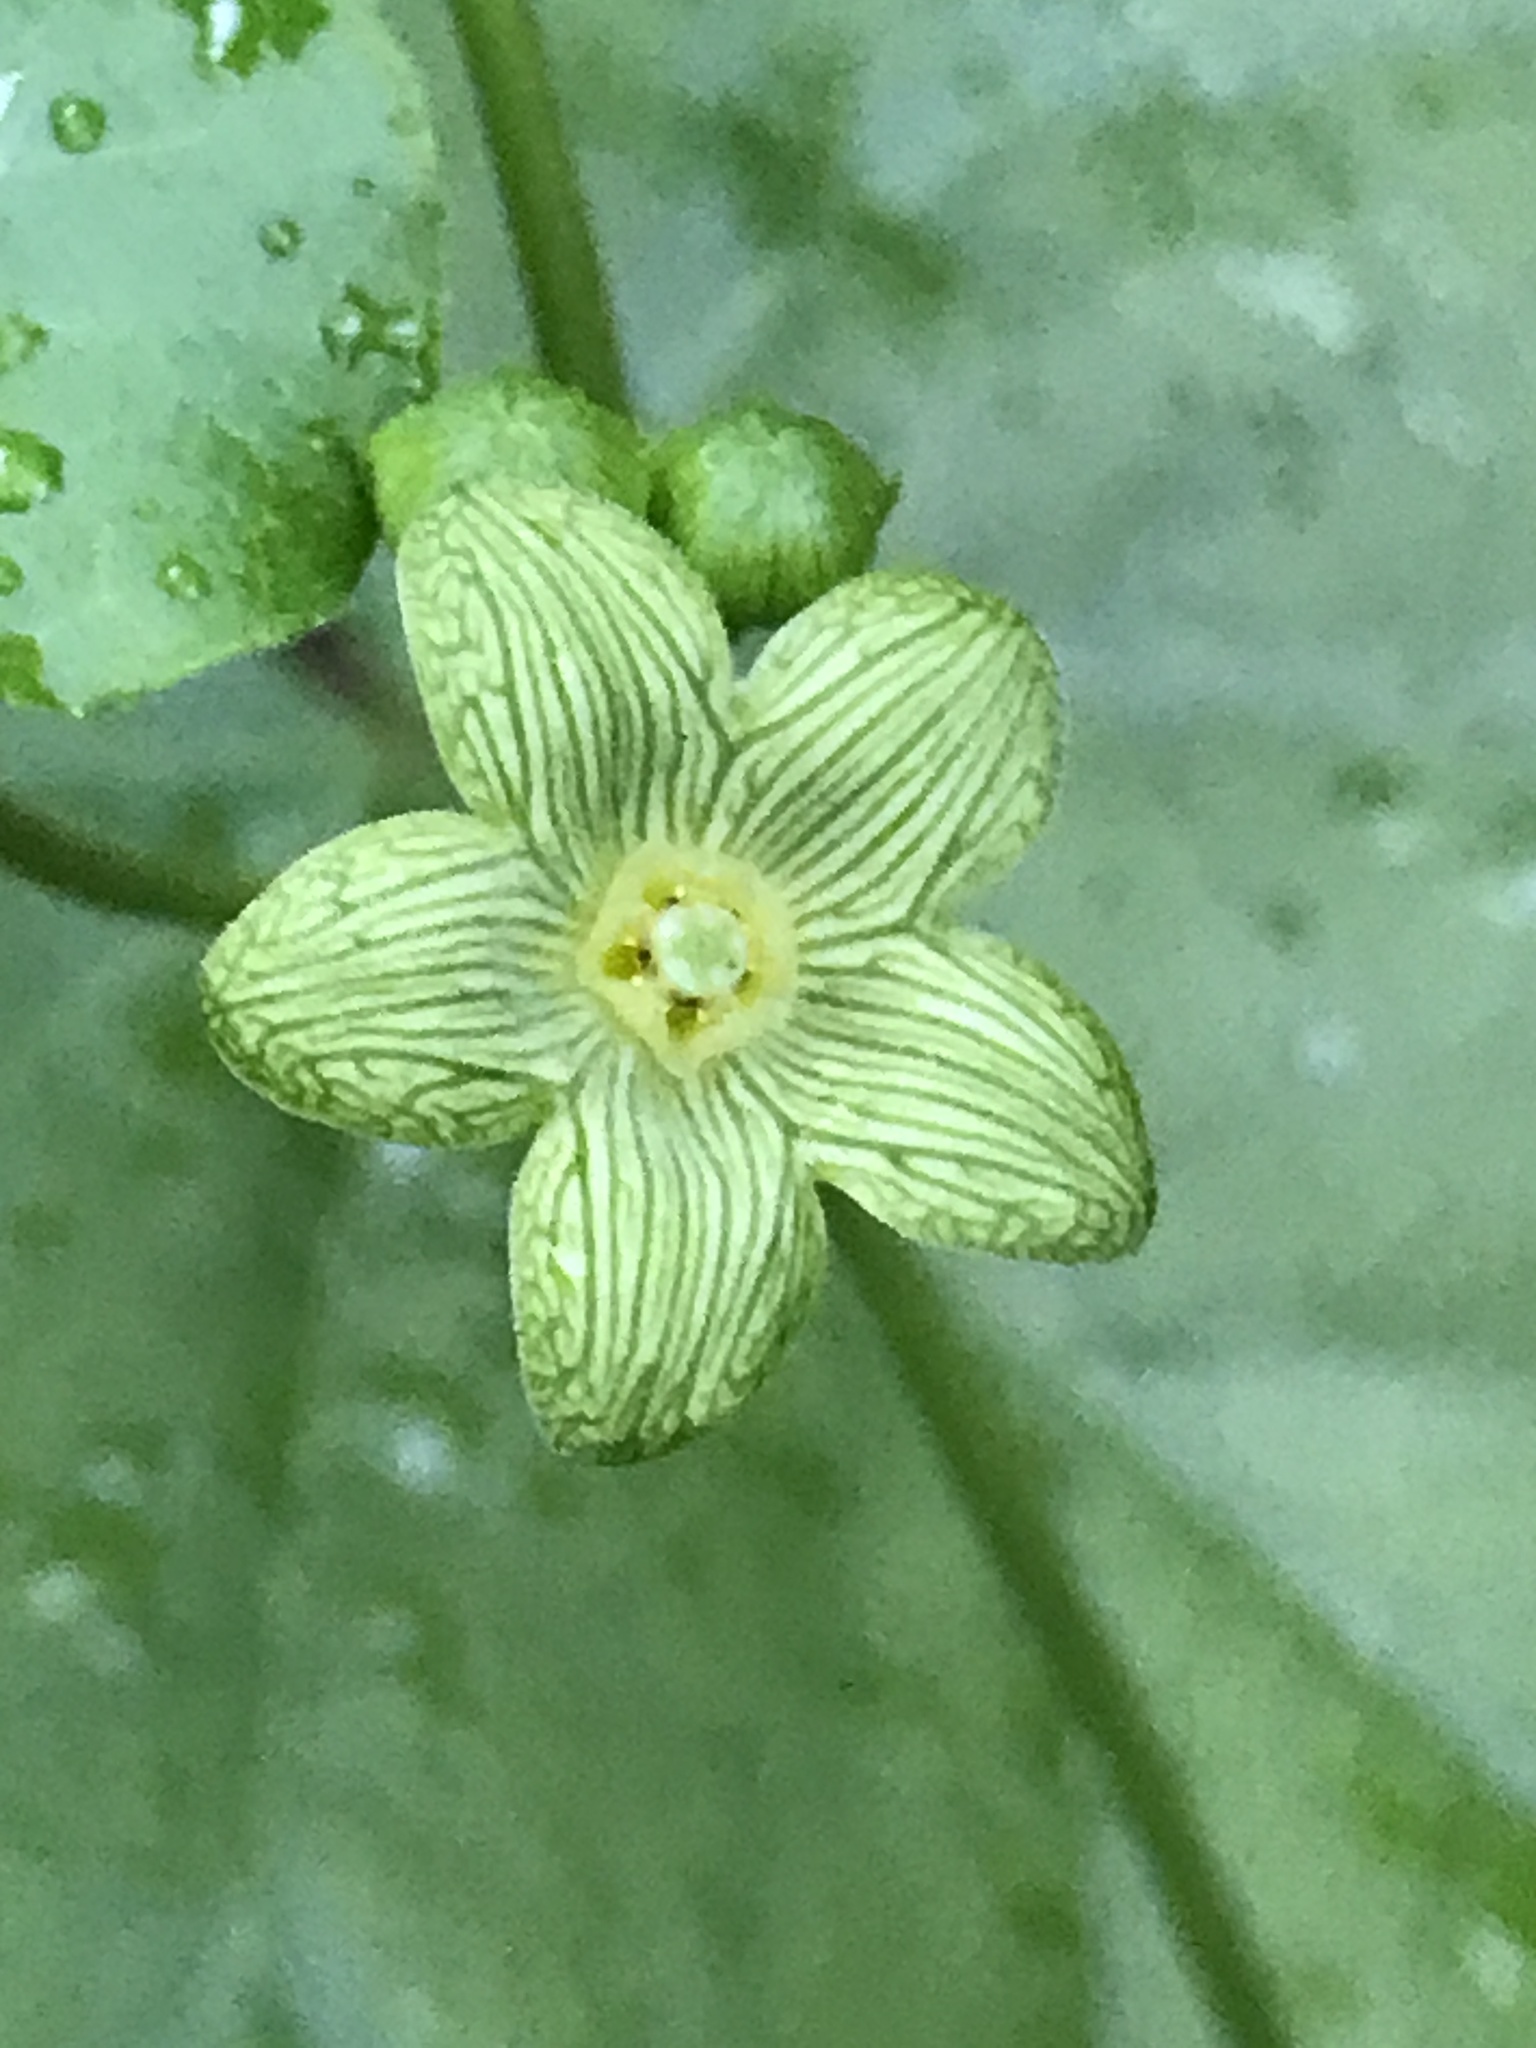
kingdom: Plantae
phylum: Tracheophyta
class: Magnoliopsida
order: Gentianales
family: Apocynaceae
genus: Matelea
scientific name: Matelea edwardsensis
